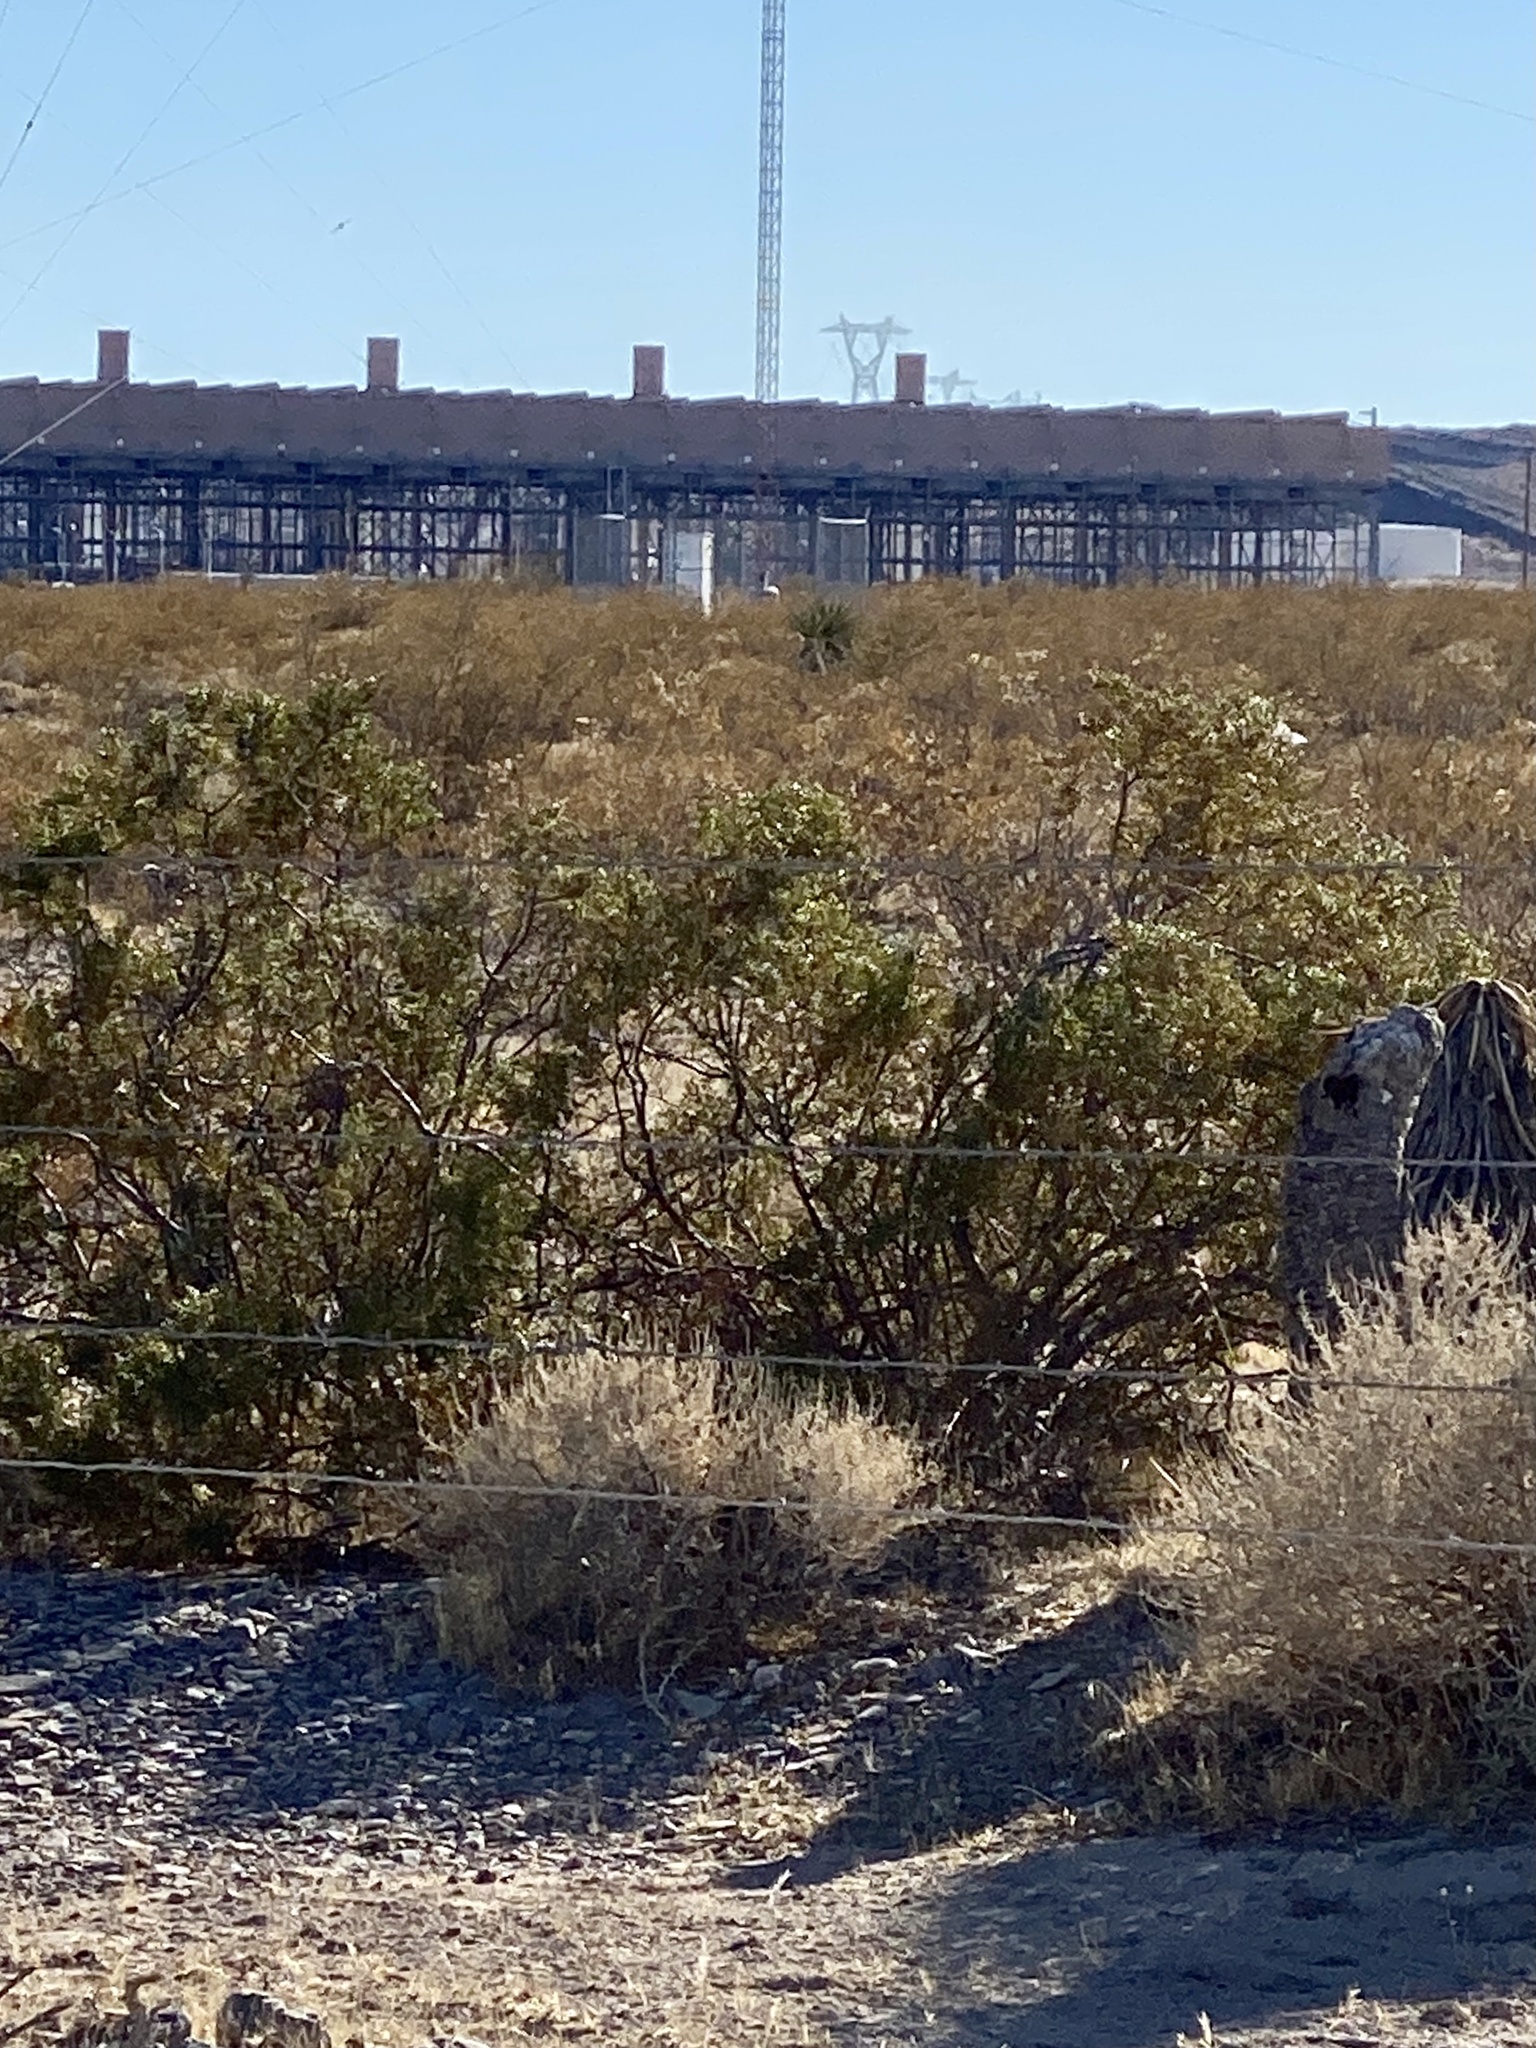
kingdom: Plantae
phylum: Tracheophyta
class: Magnoliopsida
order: Zygophyllales
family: Zygophyllaceae
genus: Larrea
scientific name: Larrea tridentata
